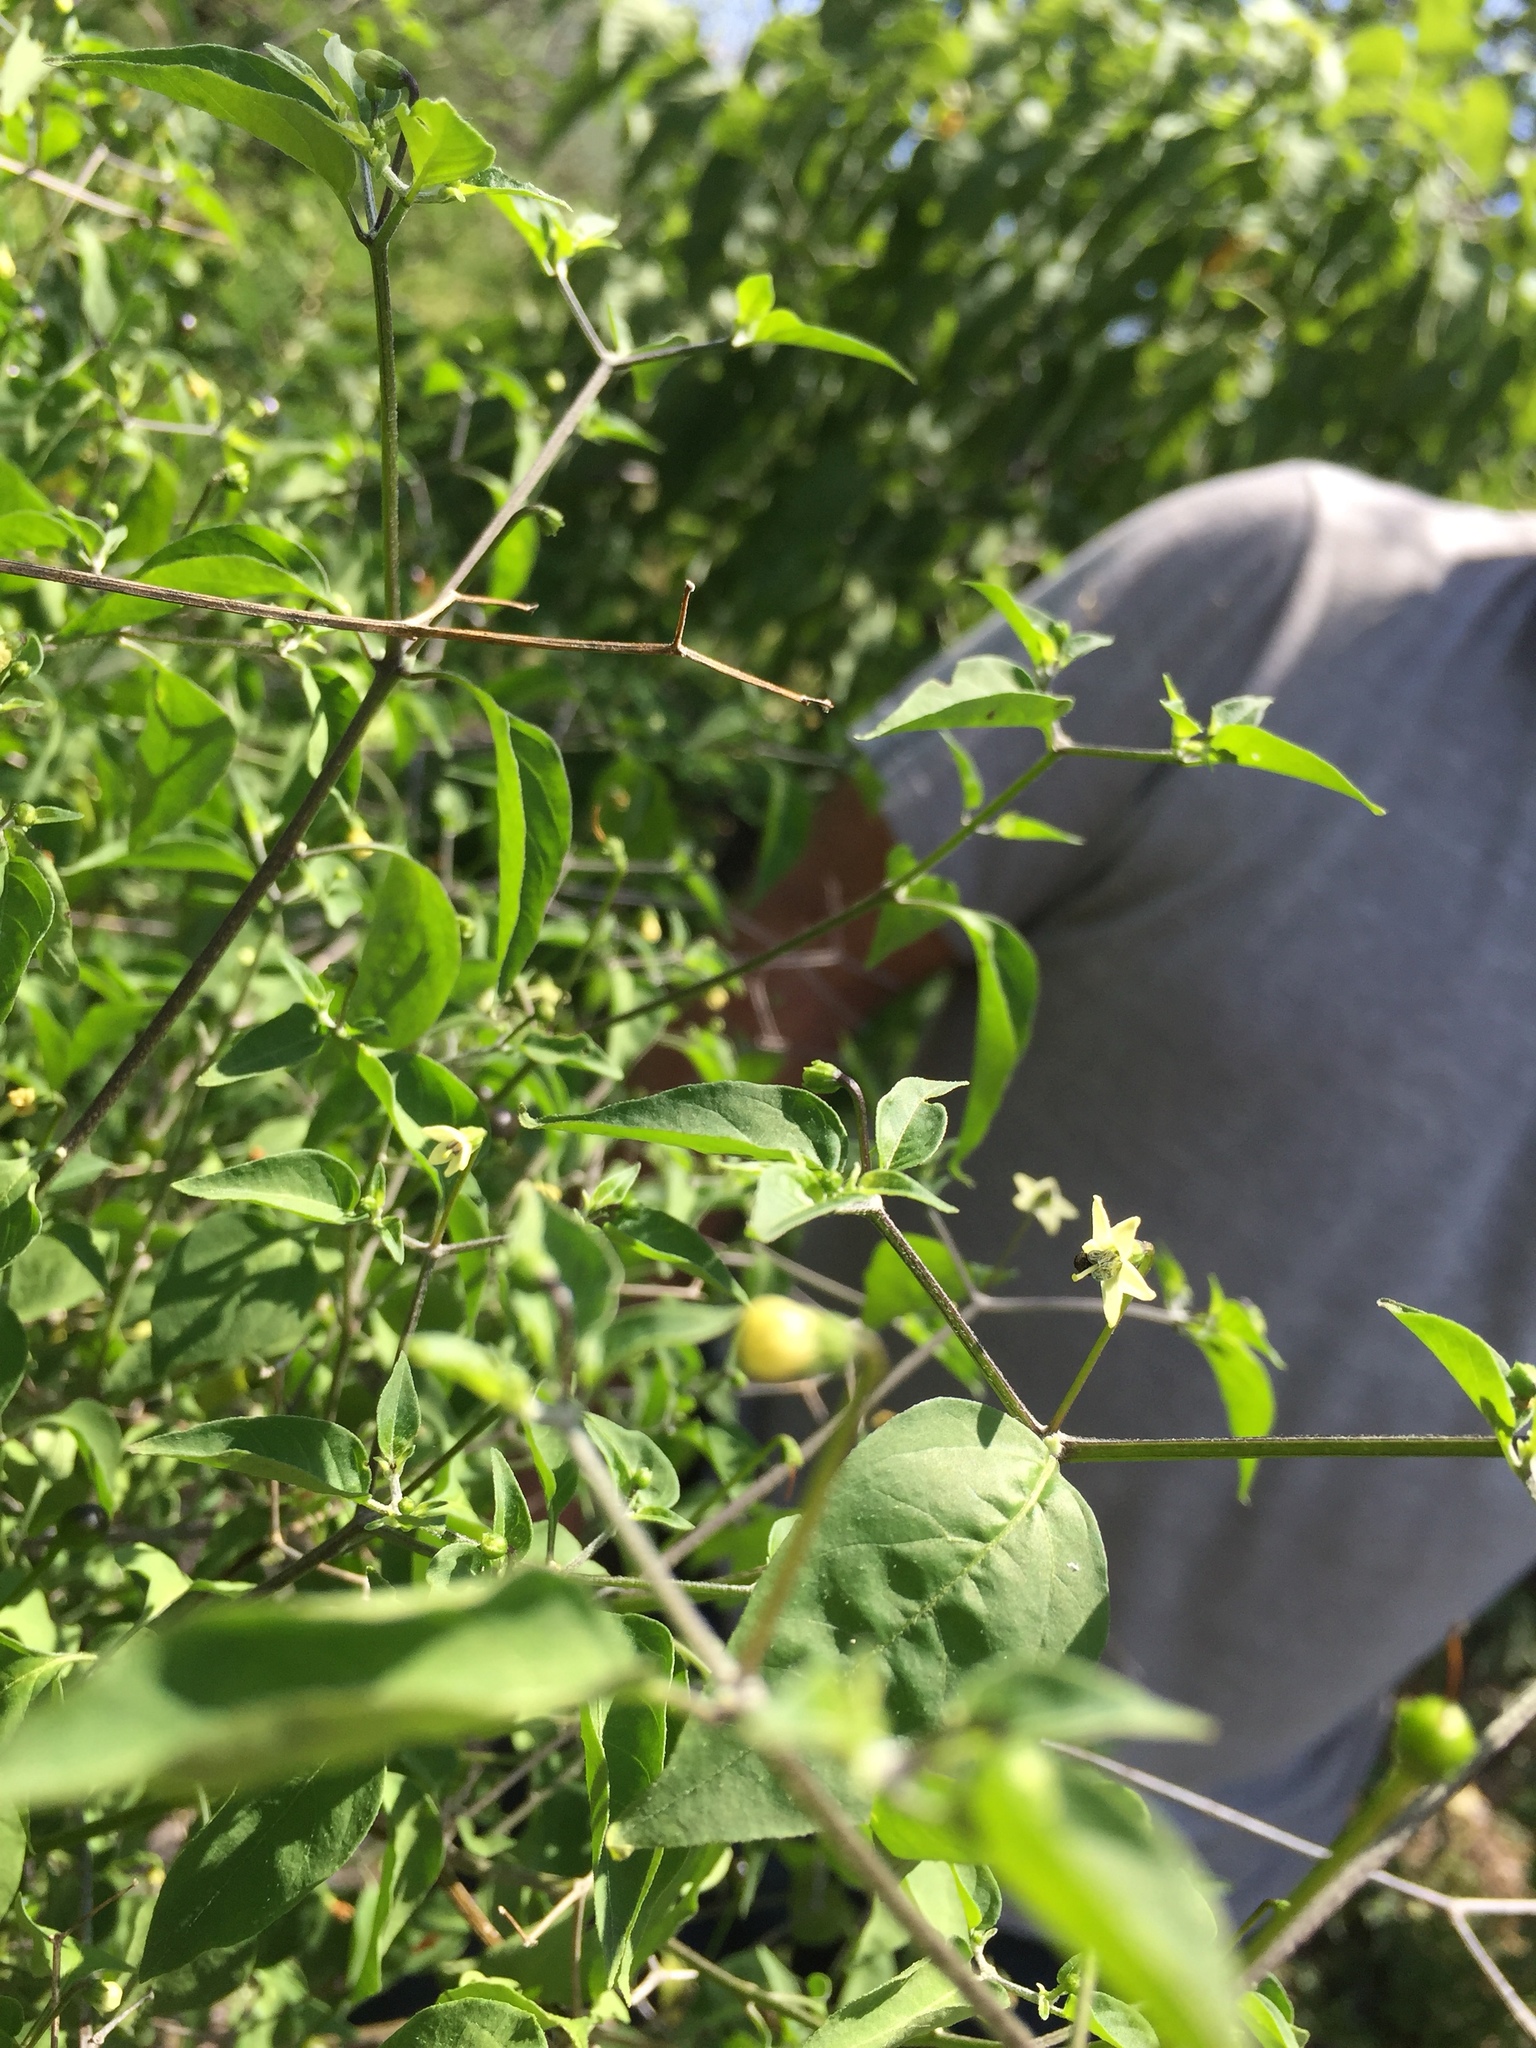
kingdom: Plantae
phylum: Tracheophyta
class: Magnoliopsida
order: Solanales
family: Solanaceae
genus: Capsicum
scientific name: Capsicum annuum
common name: Sweet pepper
